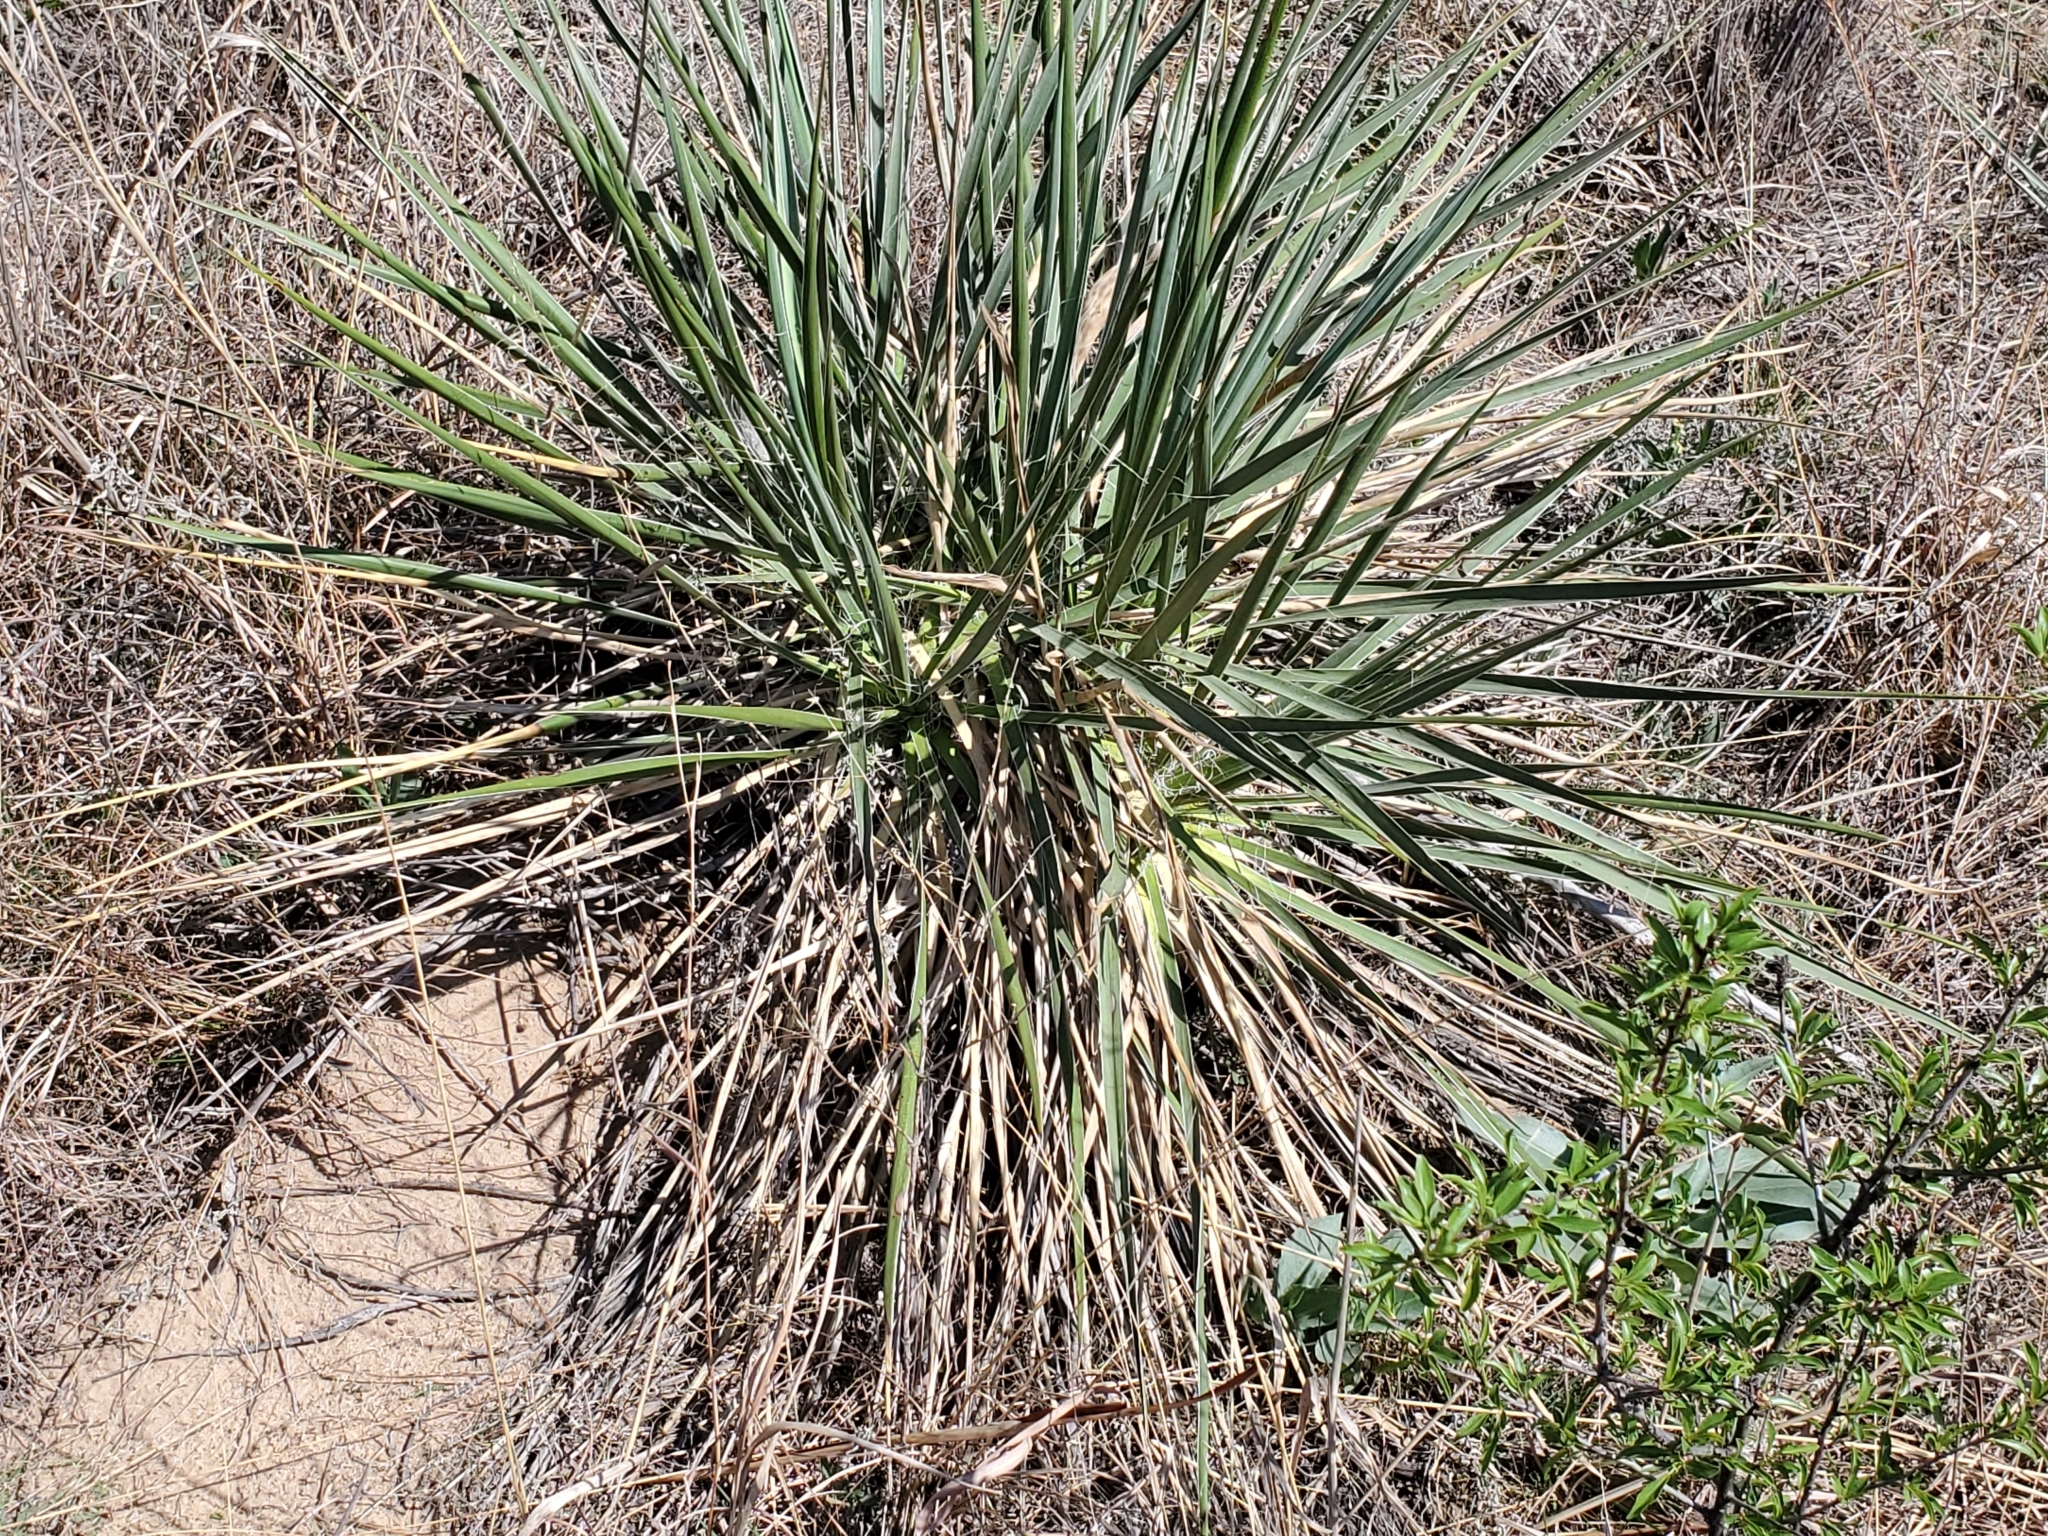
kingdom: Plantae
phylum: Tracheophyta
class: Liliopsida
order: Asparagales
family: Asparagaceae
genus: Yucca
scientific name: Yucca glauca
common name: Great plains yucca
